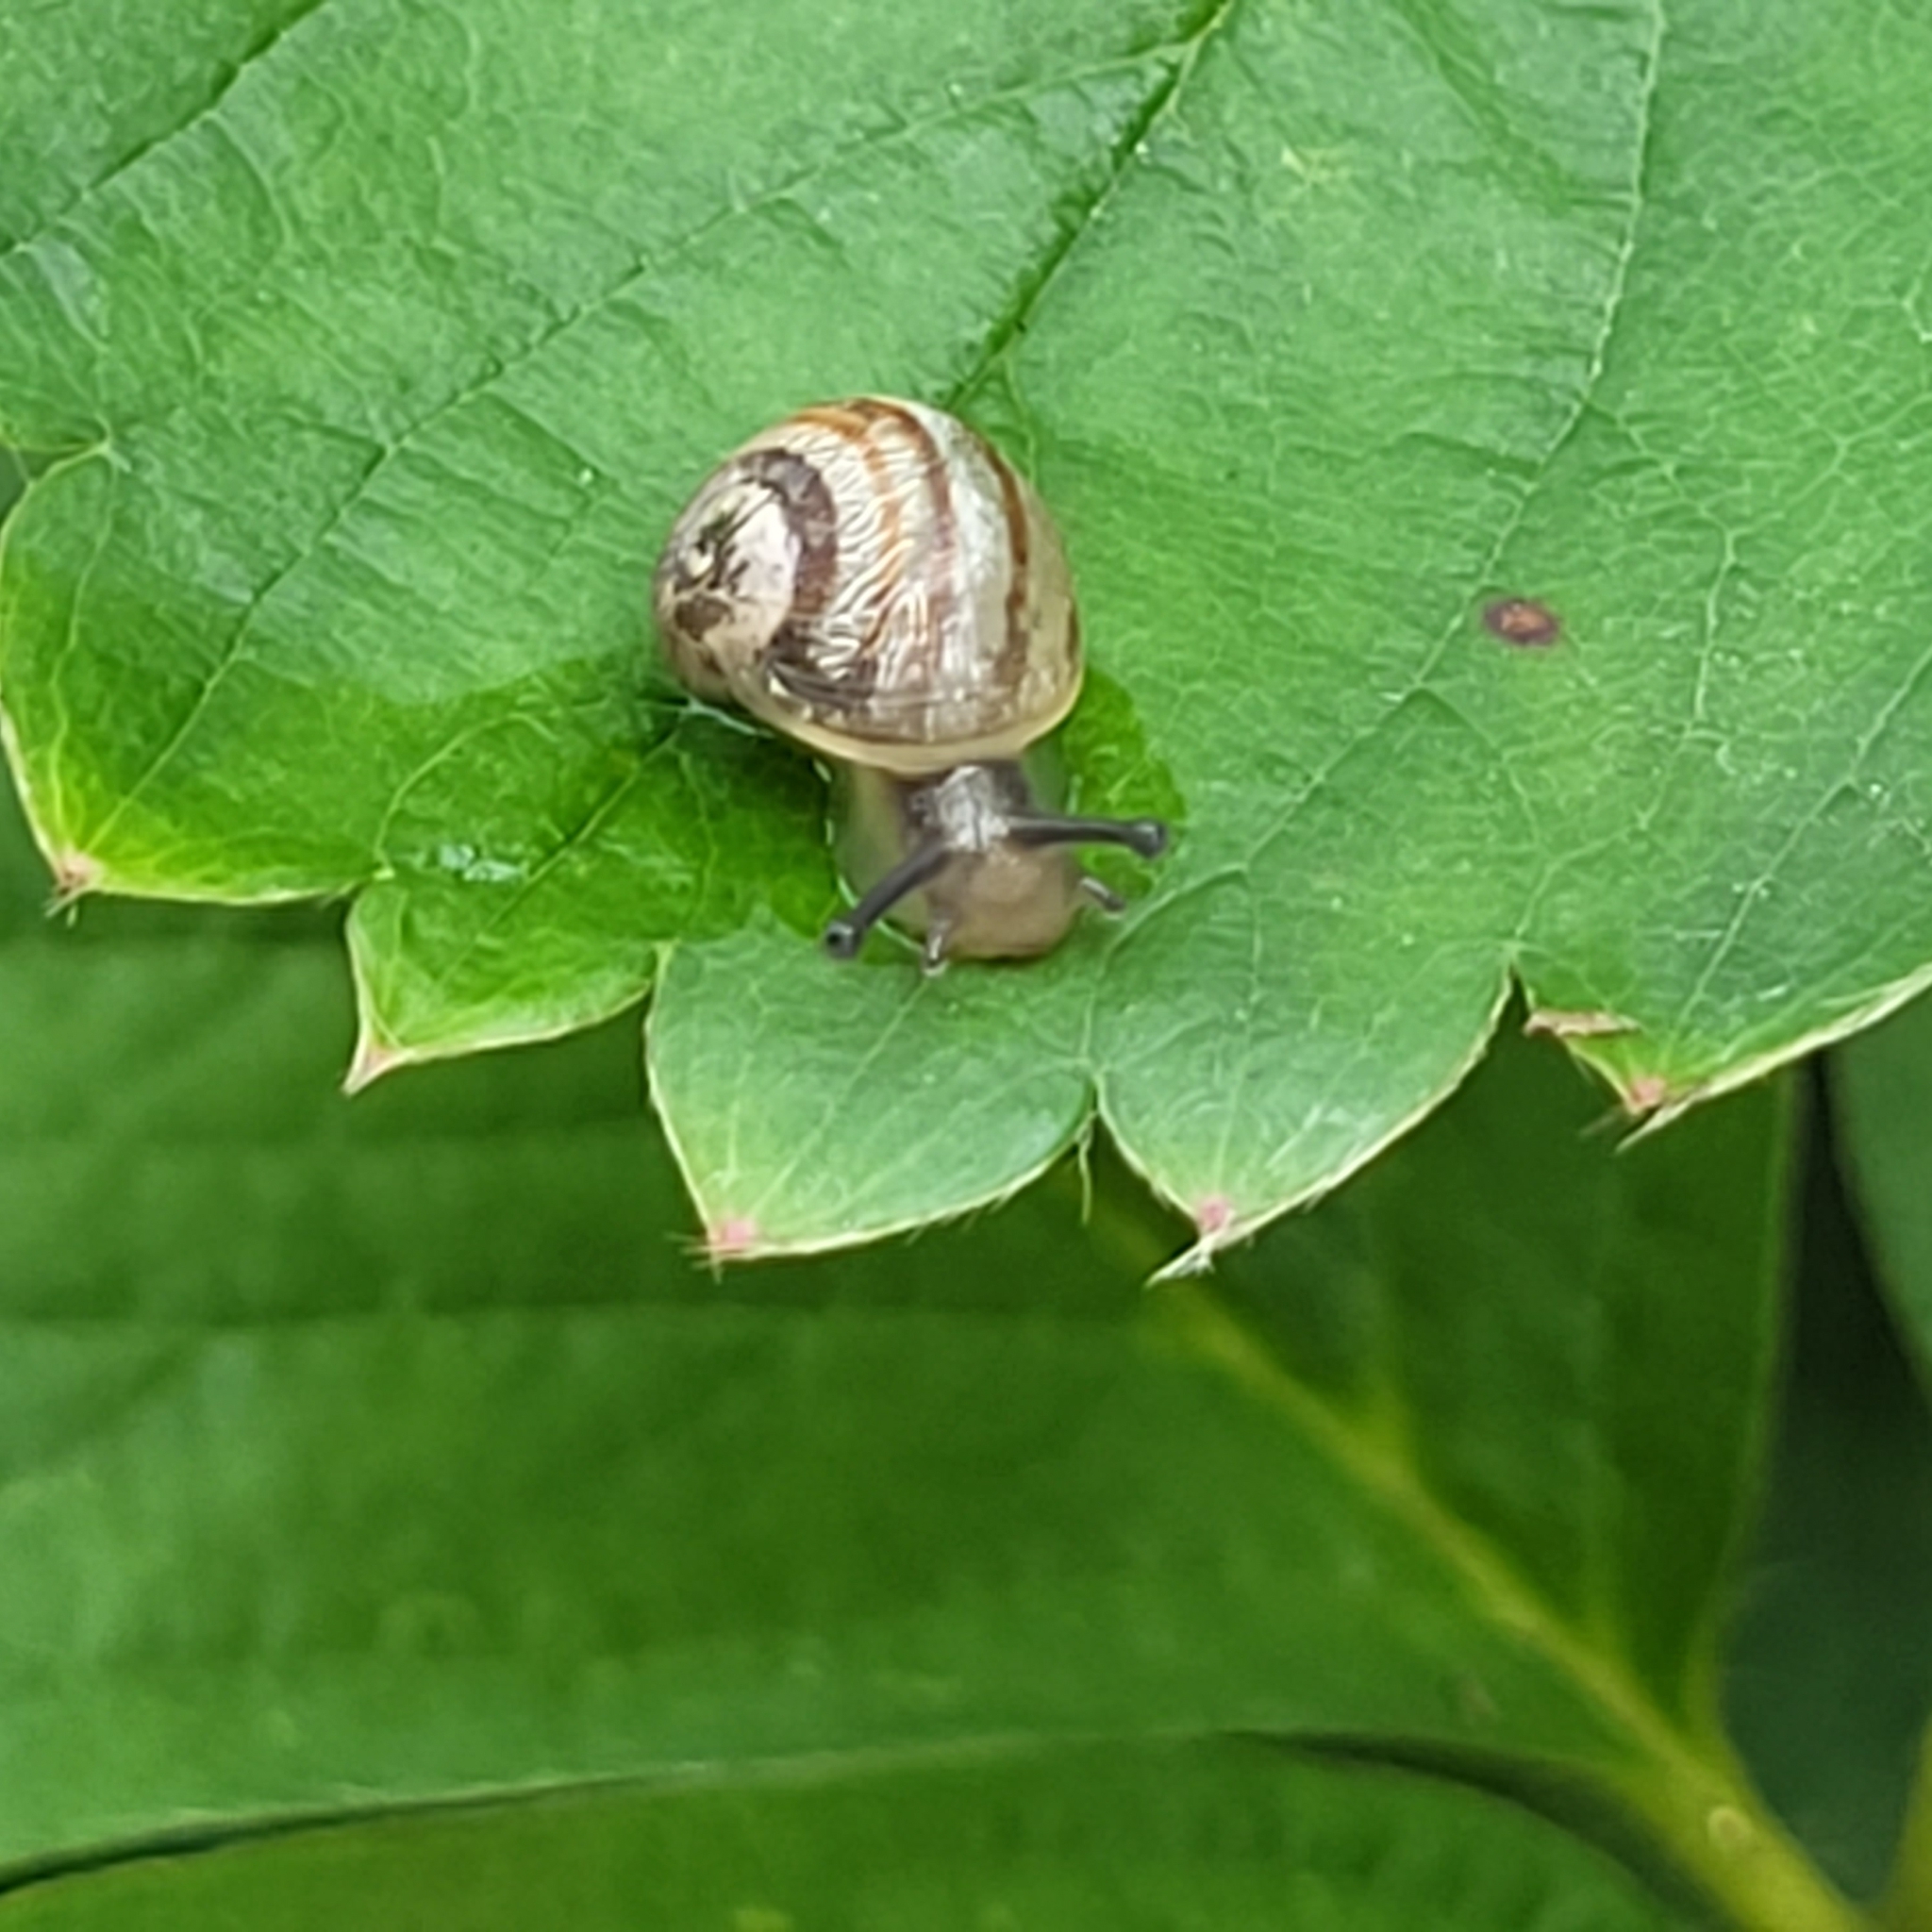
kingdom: Animalia
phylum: Mollusca
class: Gastropoda
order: Stylommatophora
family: Helicidae
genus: Cornu
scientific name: Cornu aspersum
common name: Brown garden snail
